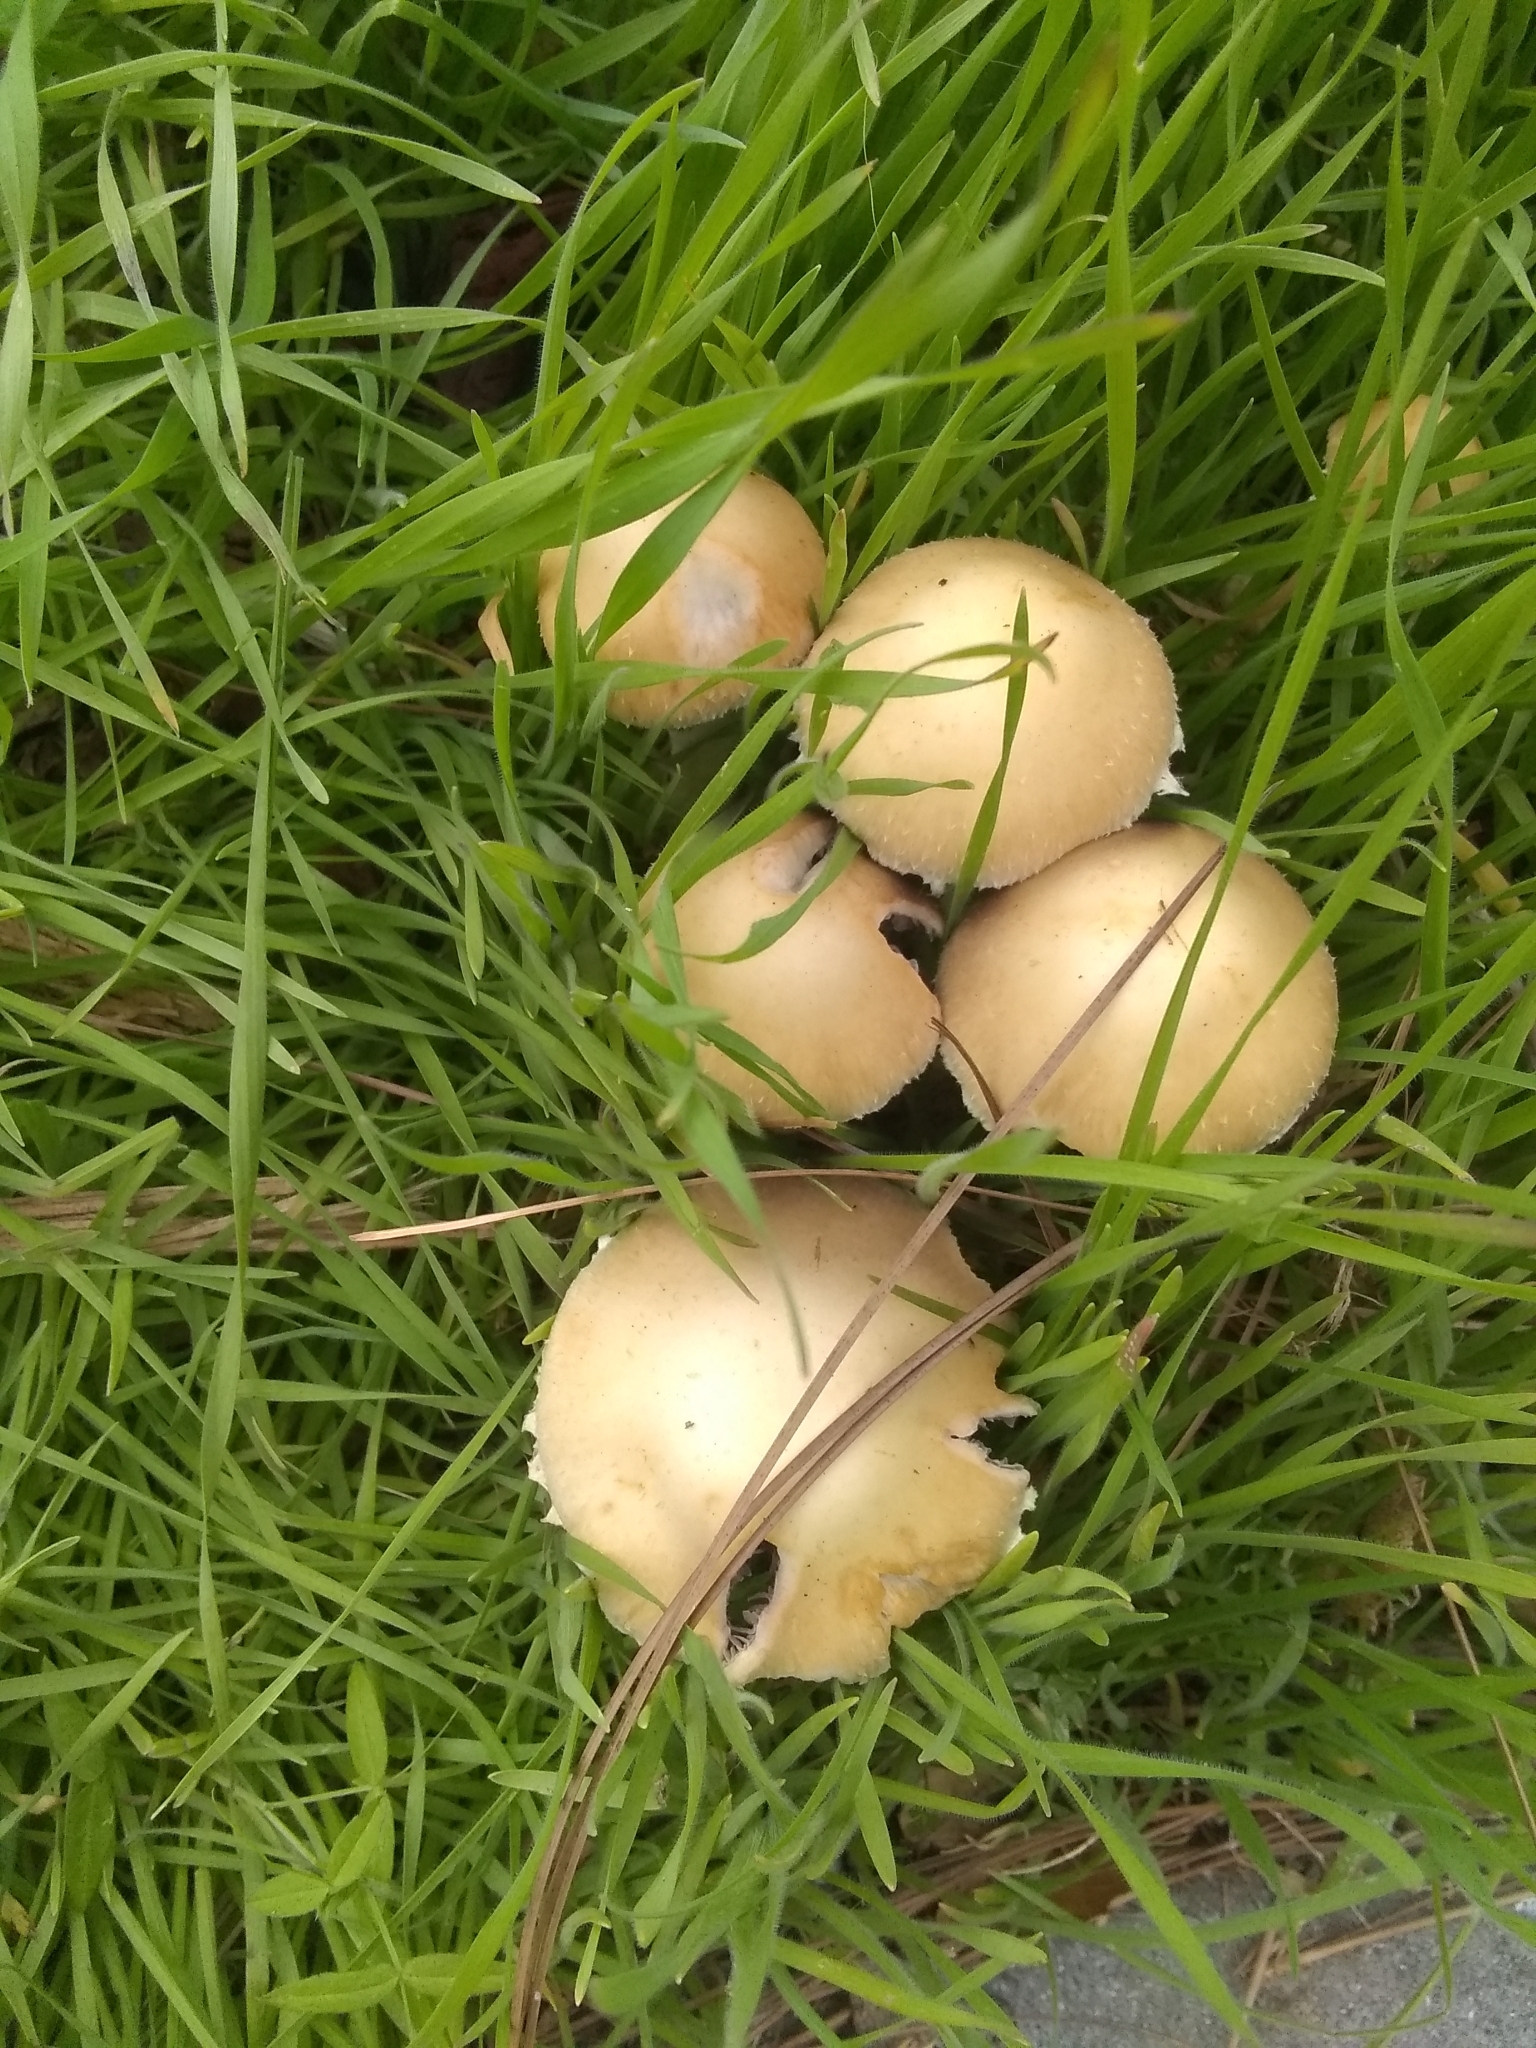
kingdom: Fungi
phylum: Basidiomycota
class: Agaricomycetes
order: Agaricales
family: Strophariaceae
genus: Leratiomyces
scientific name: Leratiomyces percevalii
